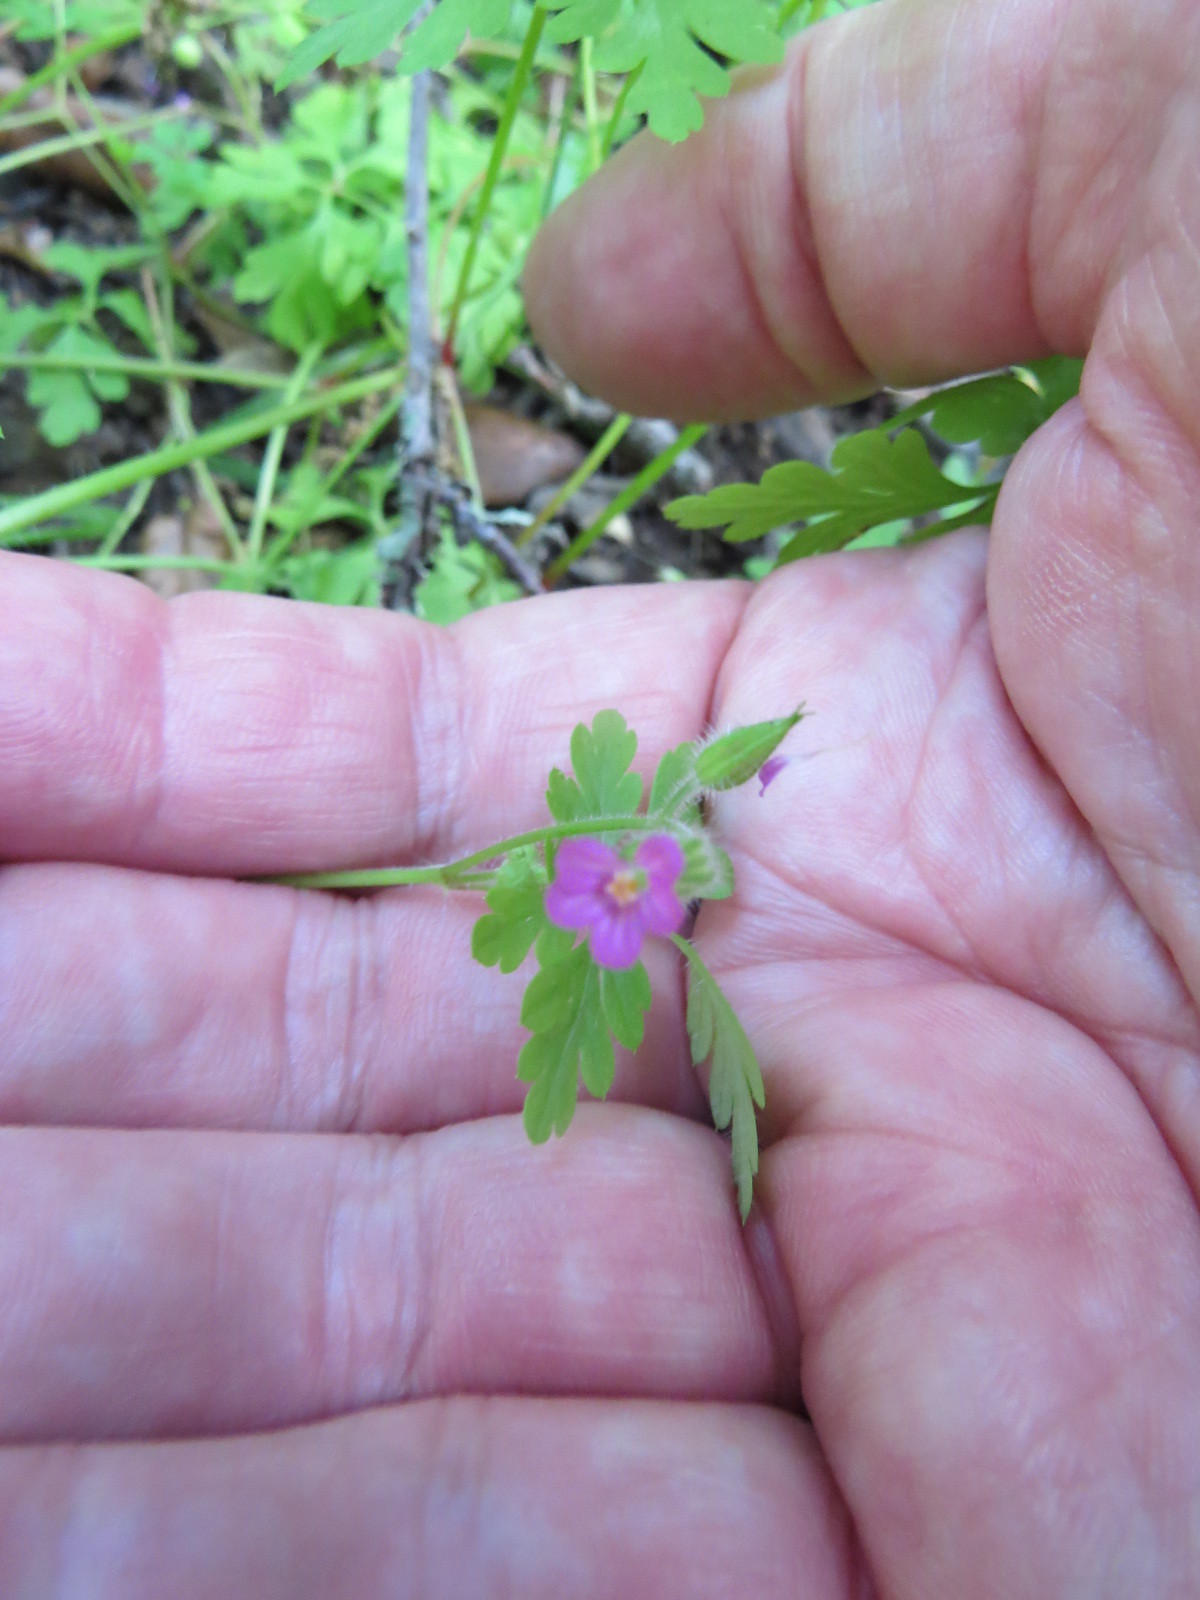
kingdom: Plantae
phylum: Tracheophyta
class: Magnoliopsida
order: Geraniales
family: Geraniaceae
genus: Geranium
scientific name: Geranium robertianum
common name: Herb-robert
